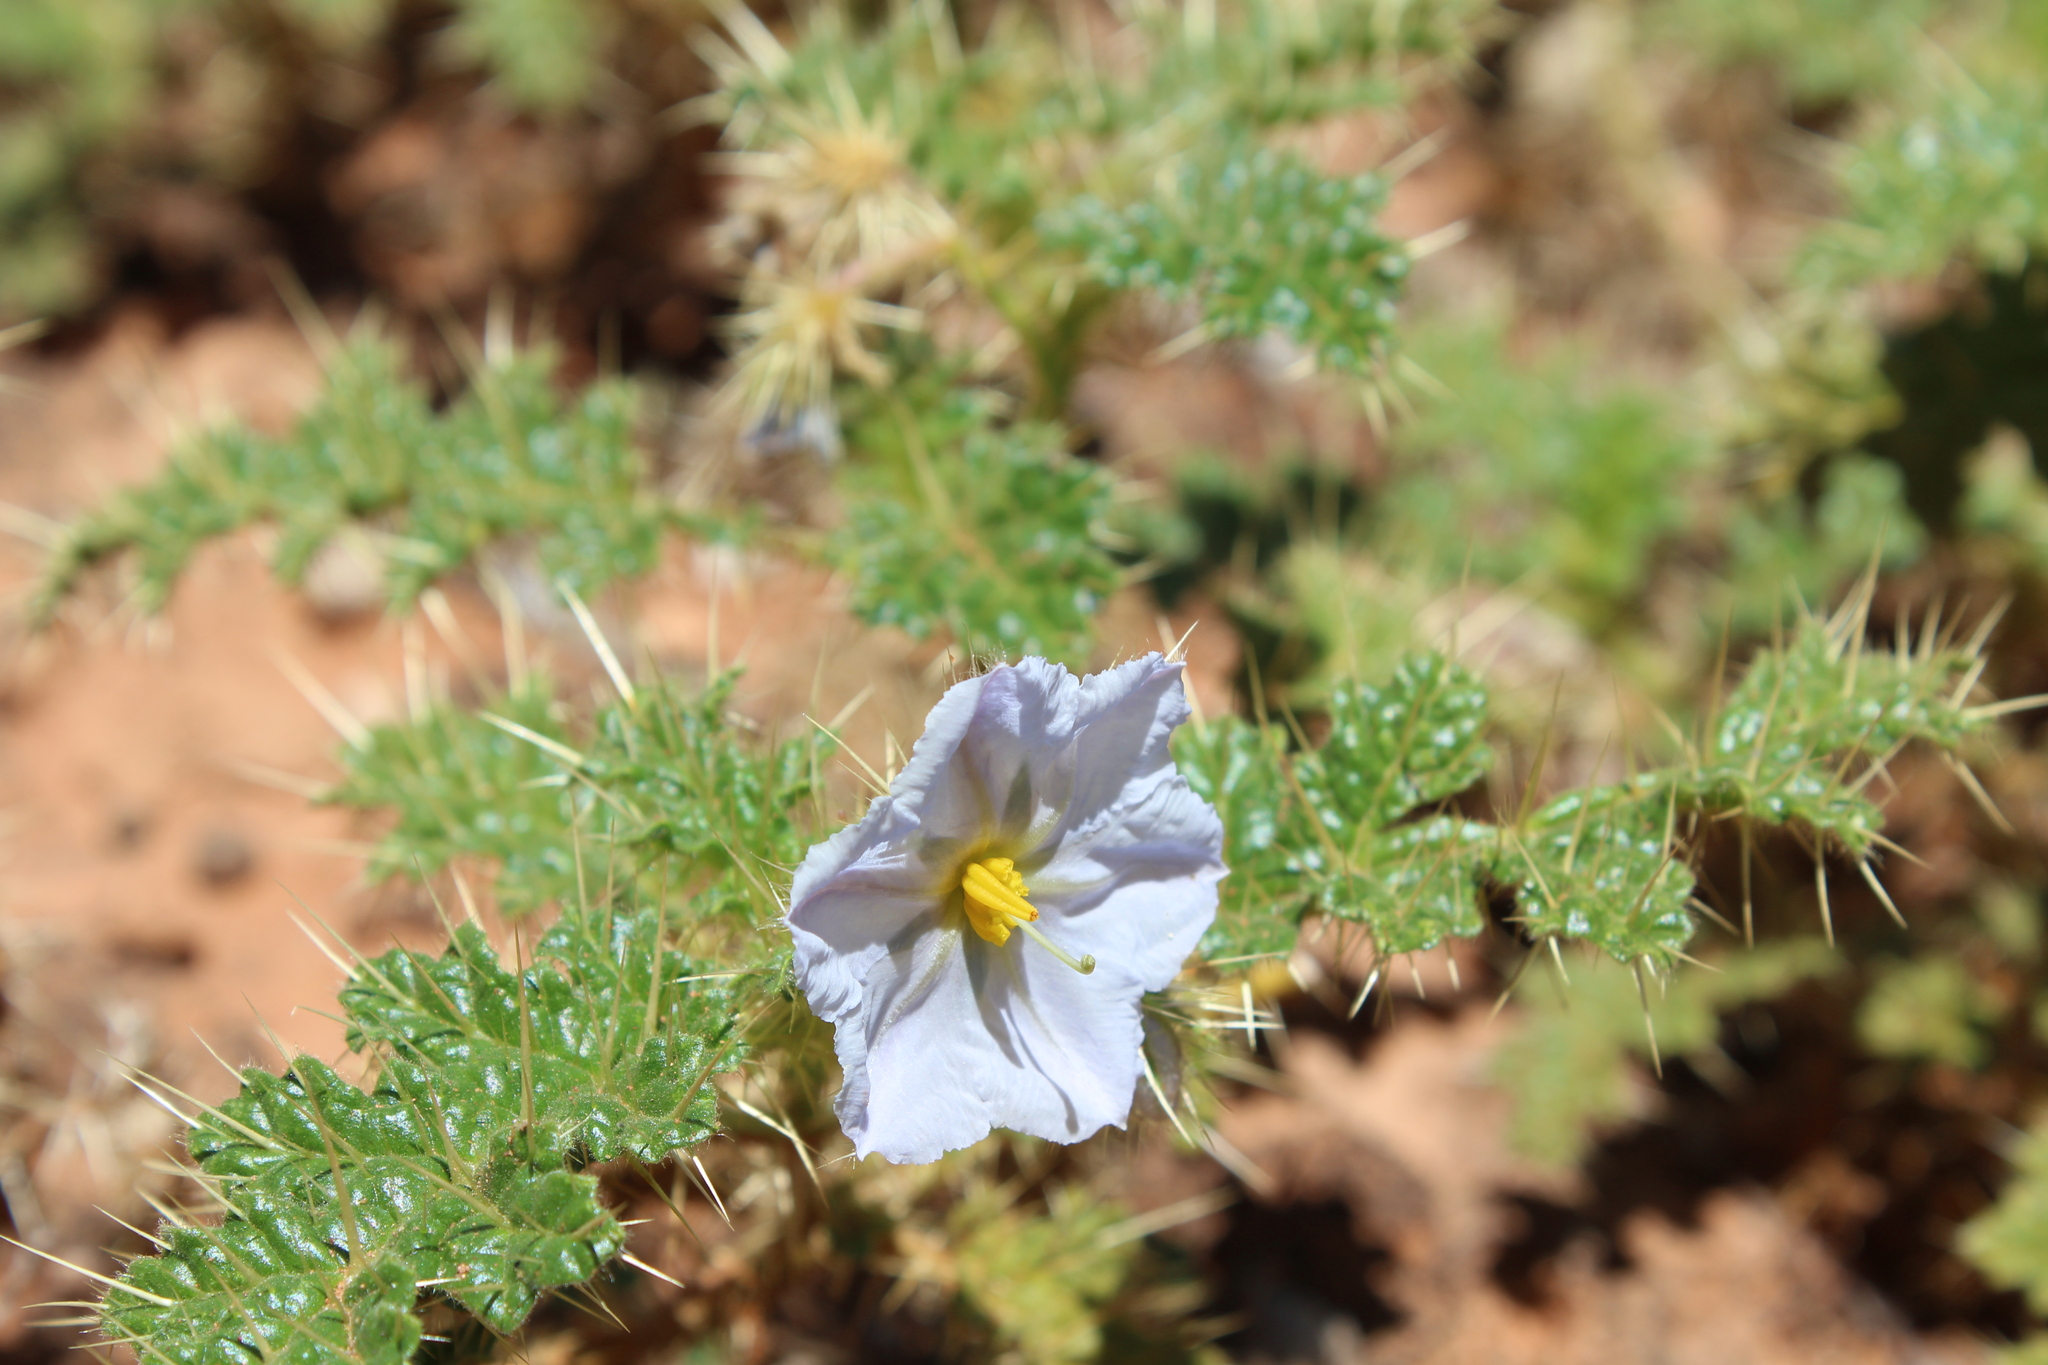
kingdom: Plantae
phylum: Tracheophyta
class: Magnoliopsida
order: Solanales
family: Solanaceae
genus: Solanum
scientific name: Solanum hoplopetalum
